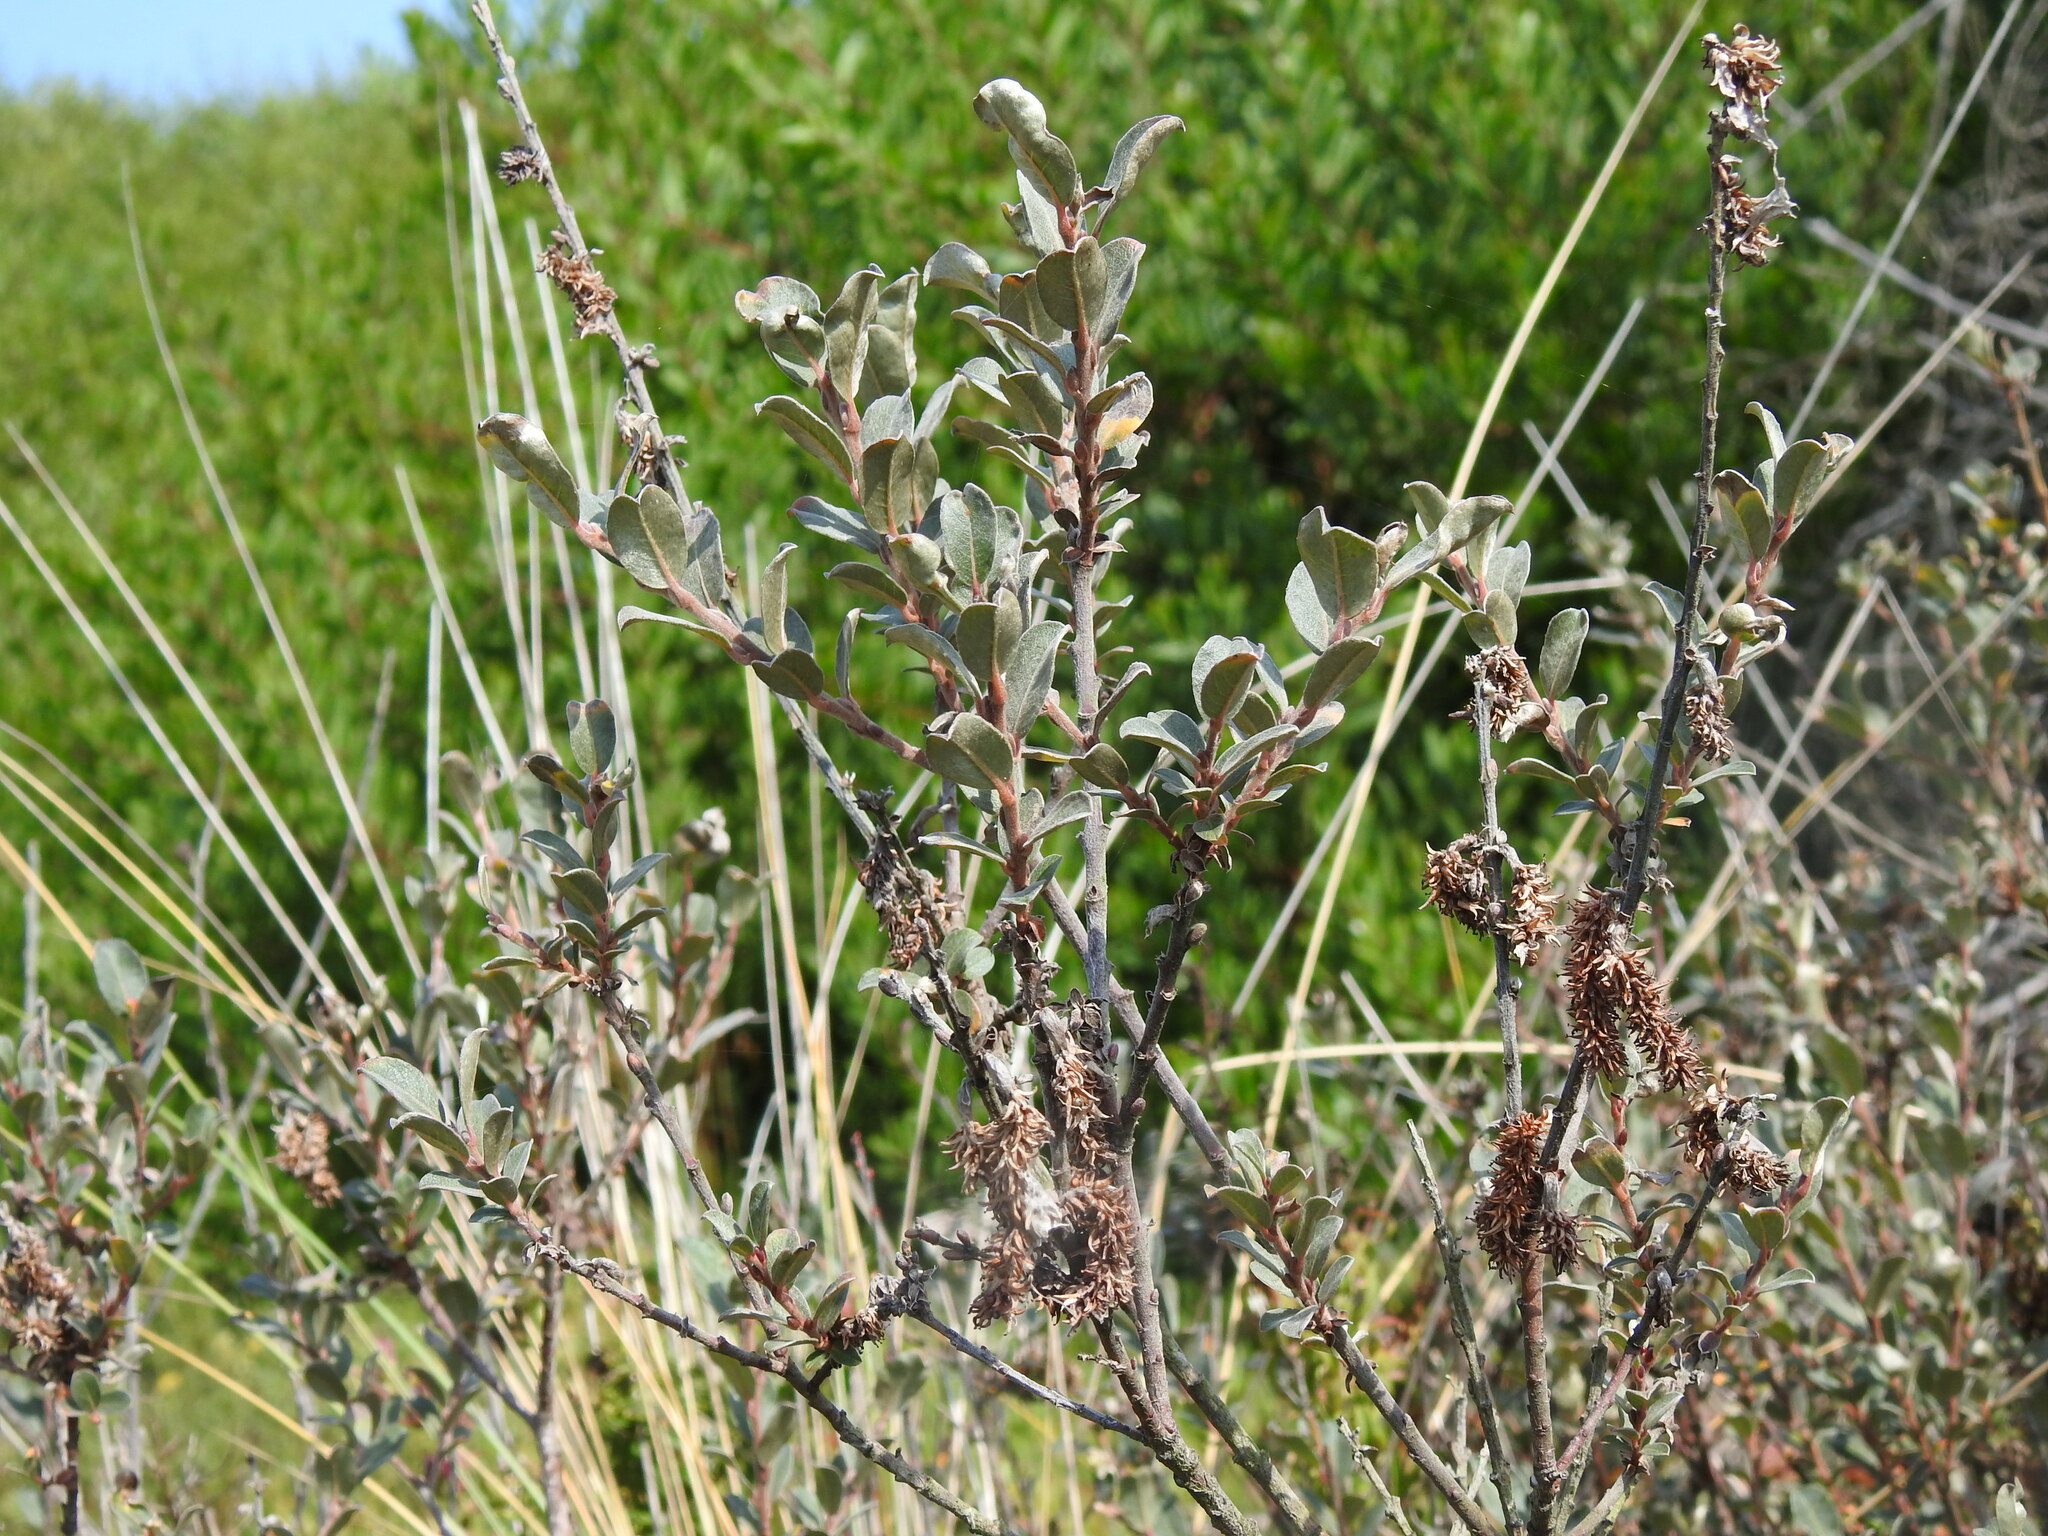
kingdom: Plantae
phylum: Tracheophyta
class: Magnoliopsida
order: Malpighiales
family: Salicaceae
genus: Salix
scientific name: Salix repens
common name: Creeping willow
